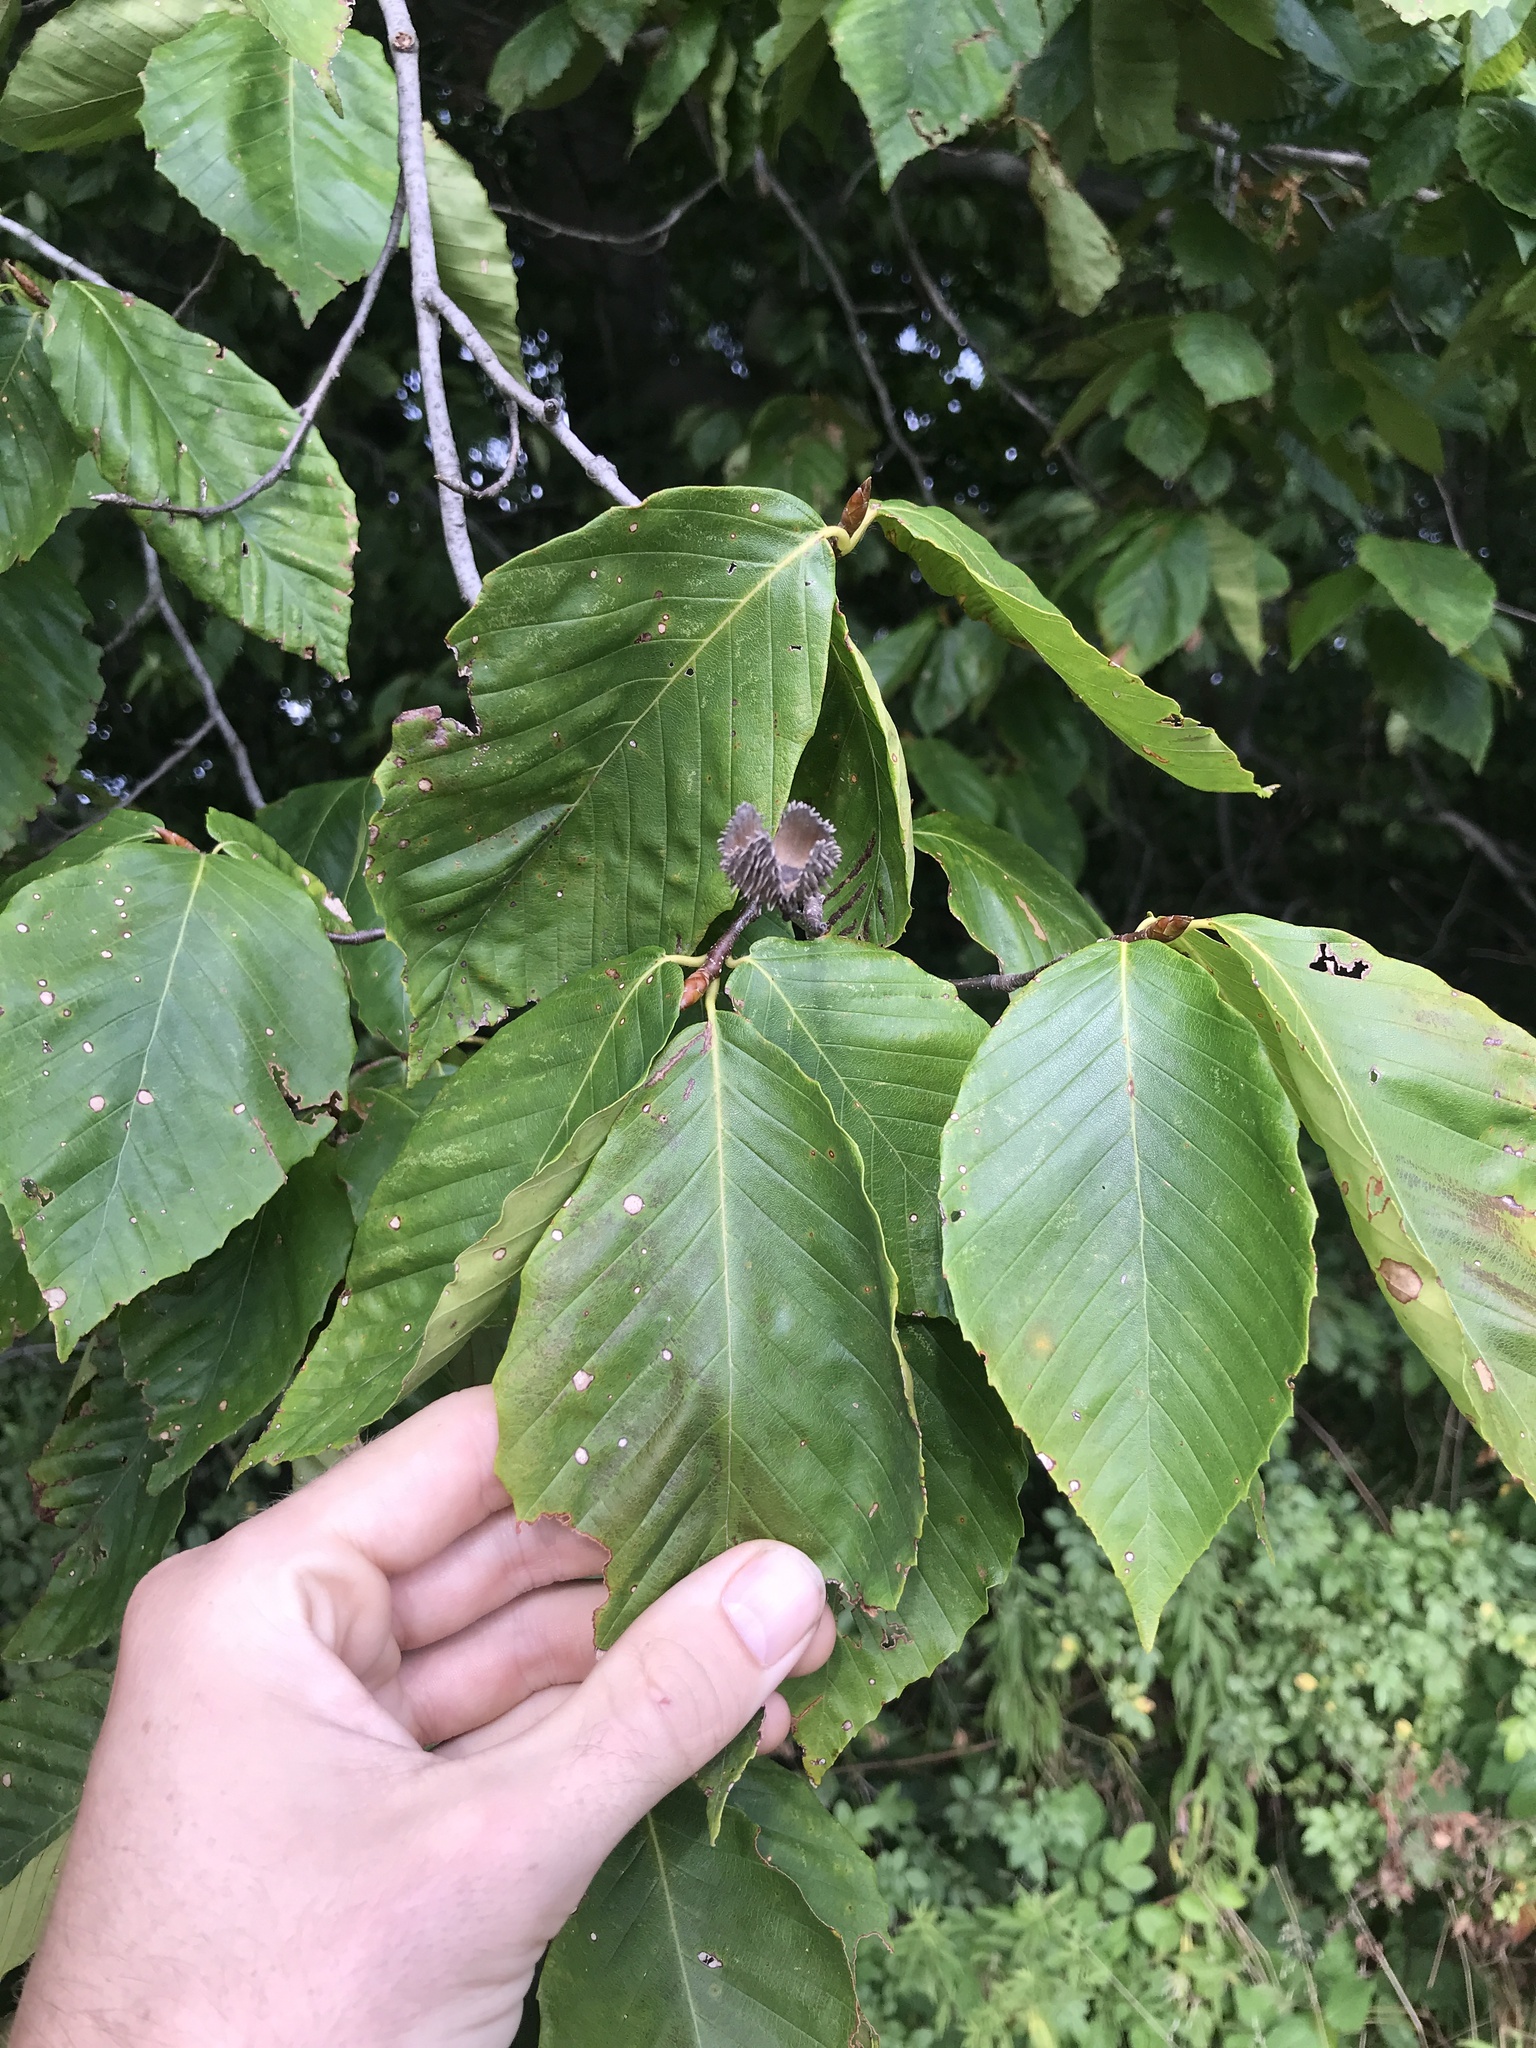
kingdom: Plantae
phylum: Tracheophyta
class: Magnoliopsida
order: Fagales
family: Fagaceae
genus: Fagus
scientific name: Fagus grandifolia
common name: American beech
